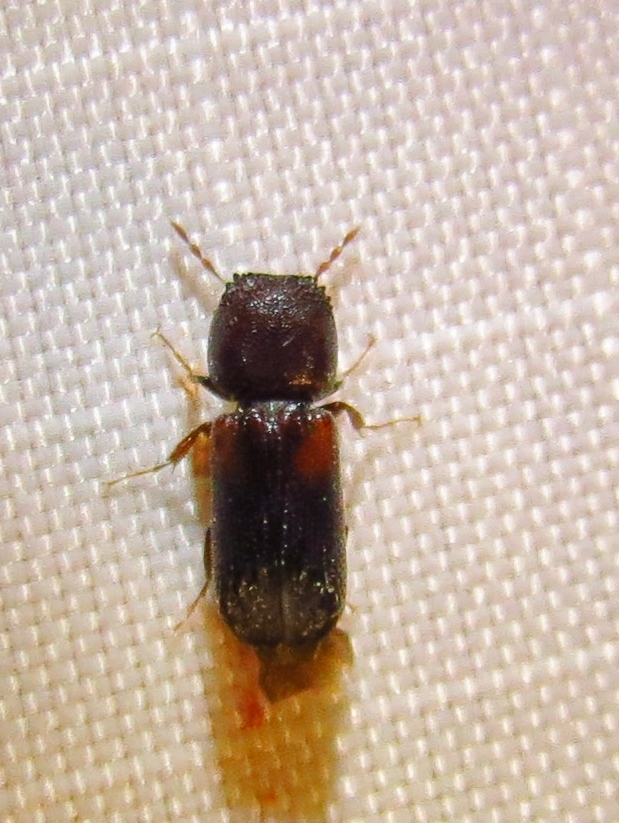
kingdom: Animalia
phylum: Arthropoda
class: Insecta
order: Coleoptera
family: Bostrichidae
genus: Xylobiops
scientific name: Xylobiops basilaris
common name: Red-shouldered bostrichid
